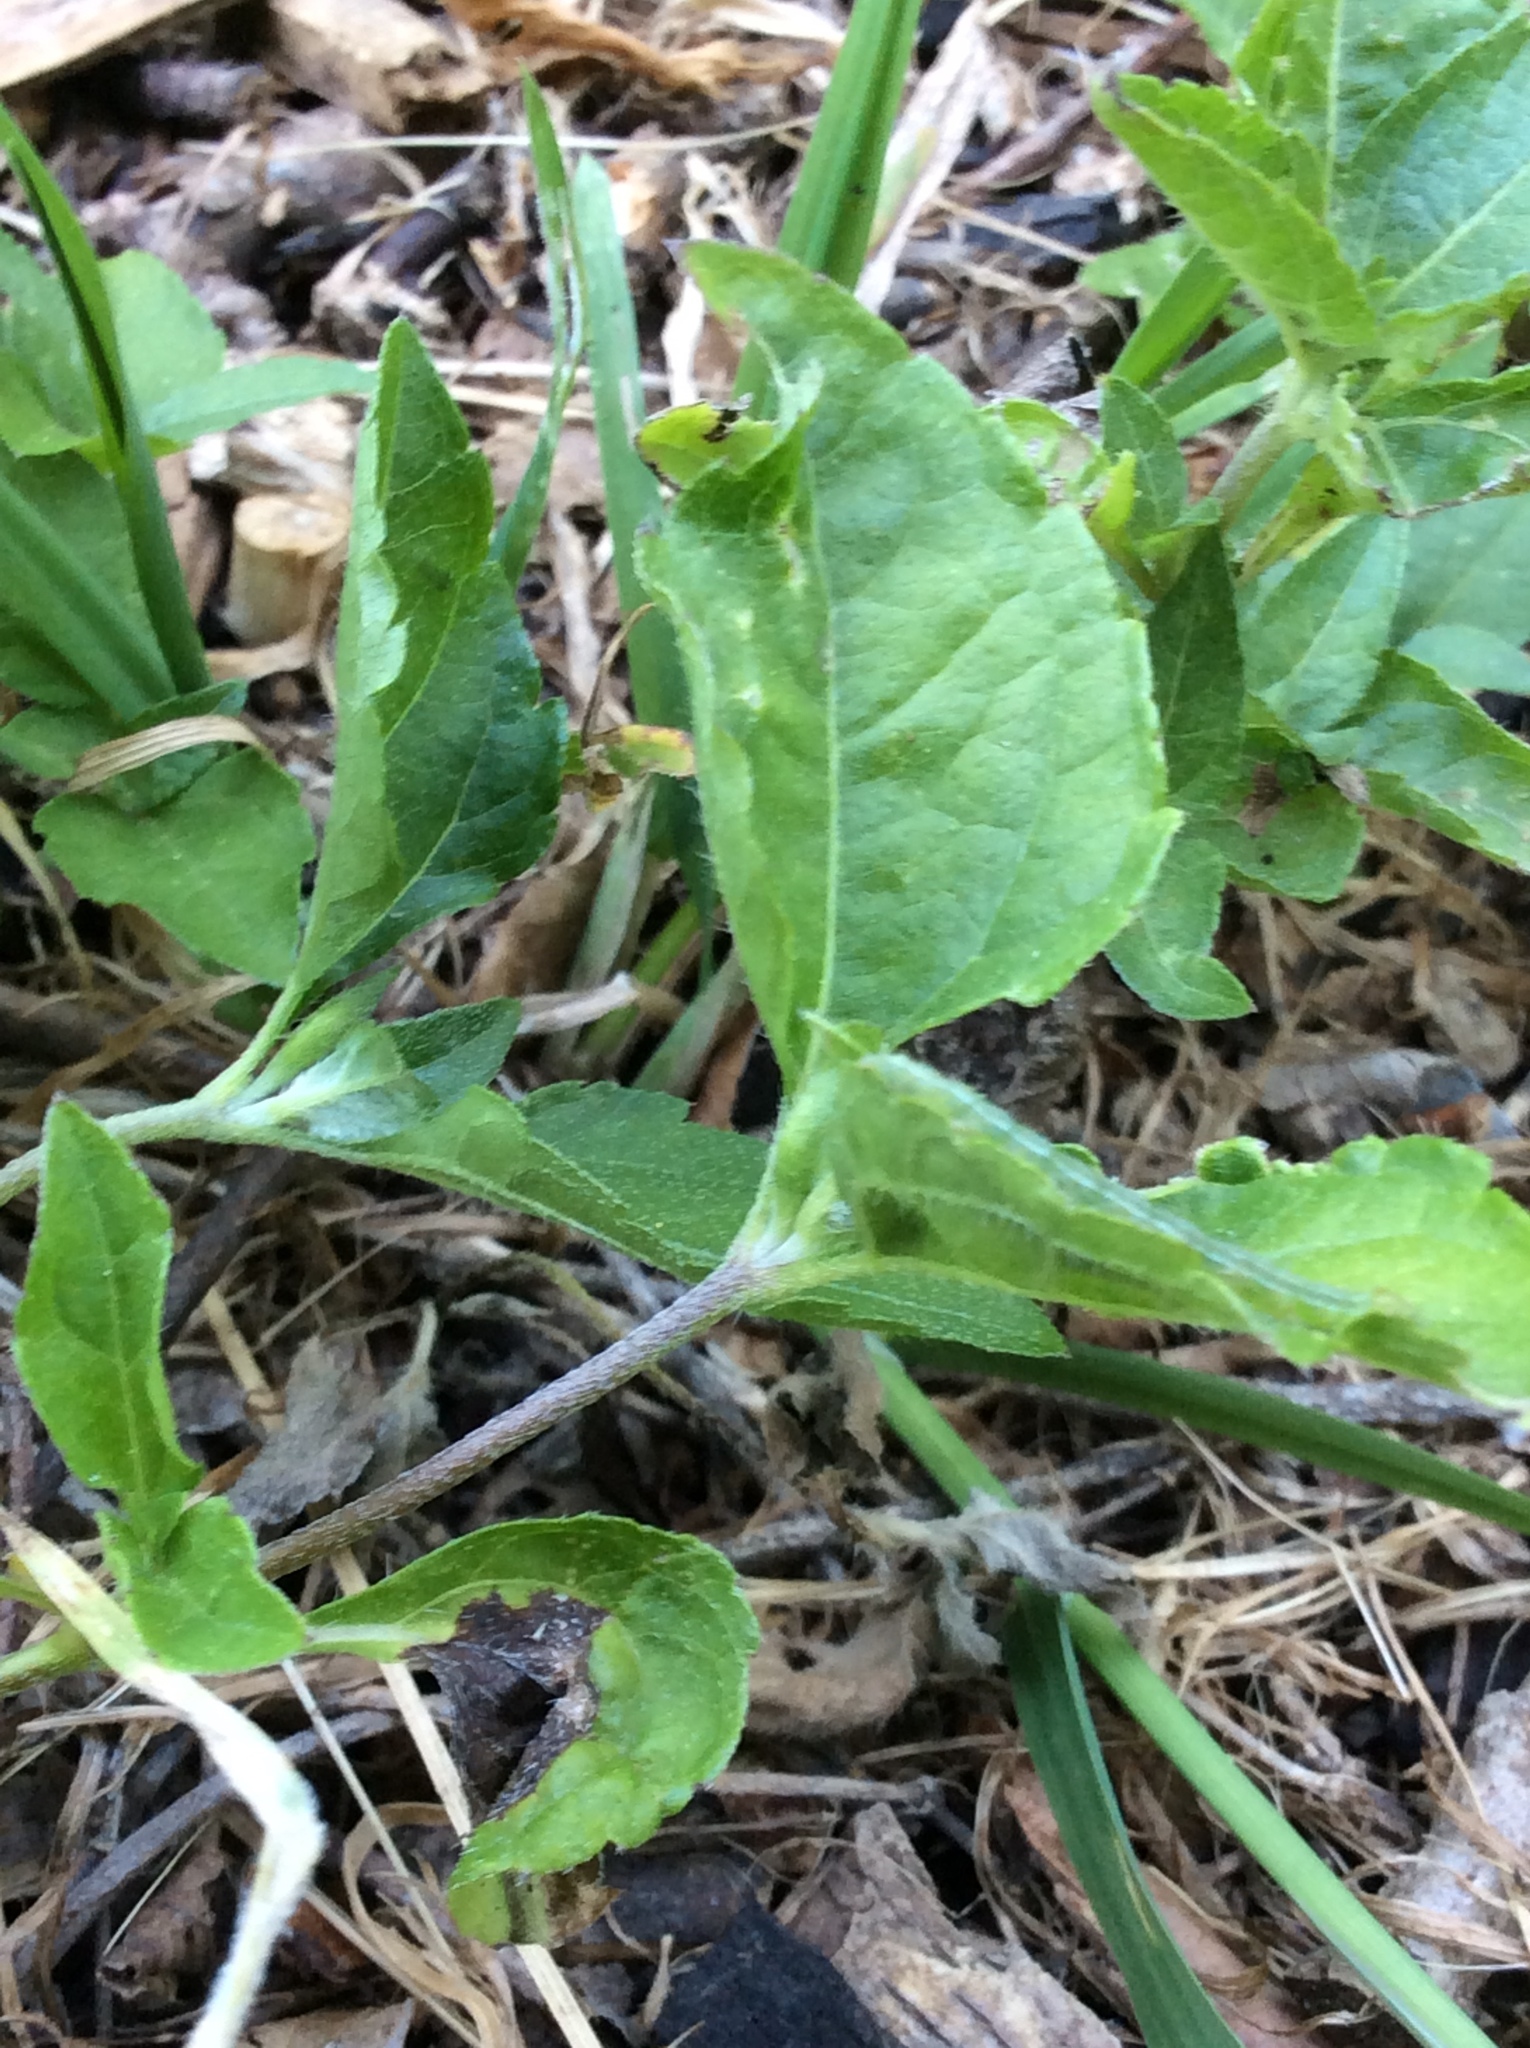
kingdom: Plantae
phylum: Tracheophyta
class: Magnoliopsida
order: Asterales
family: Asteraceae
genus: Calyptocarpus
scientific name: Calyptocarpus vialis
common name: Straggler daisy
